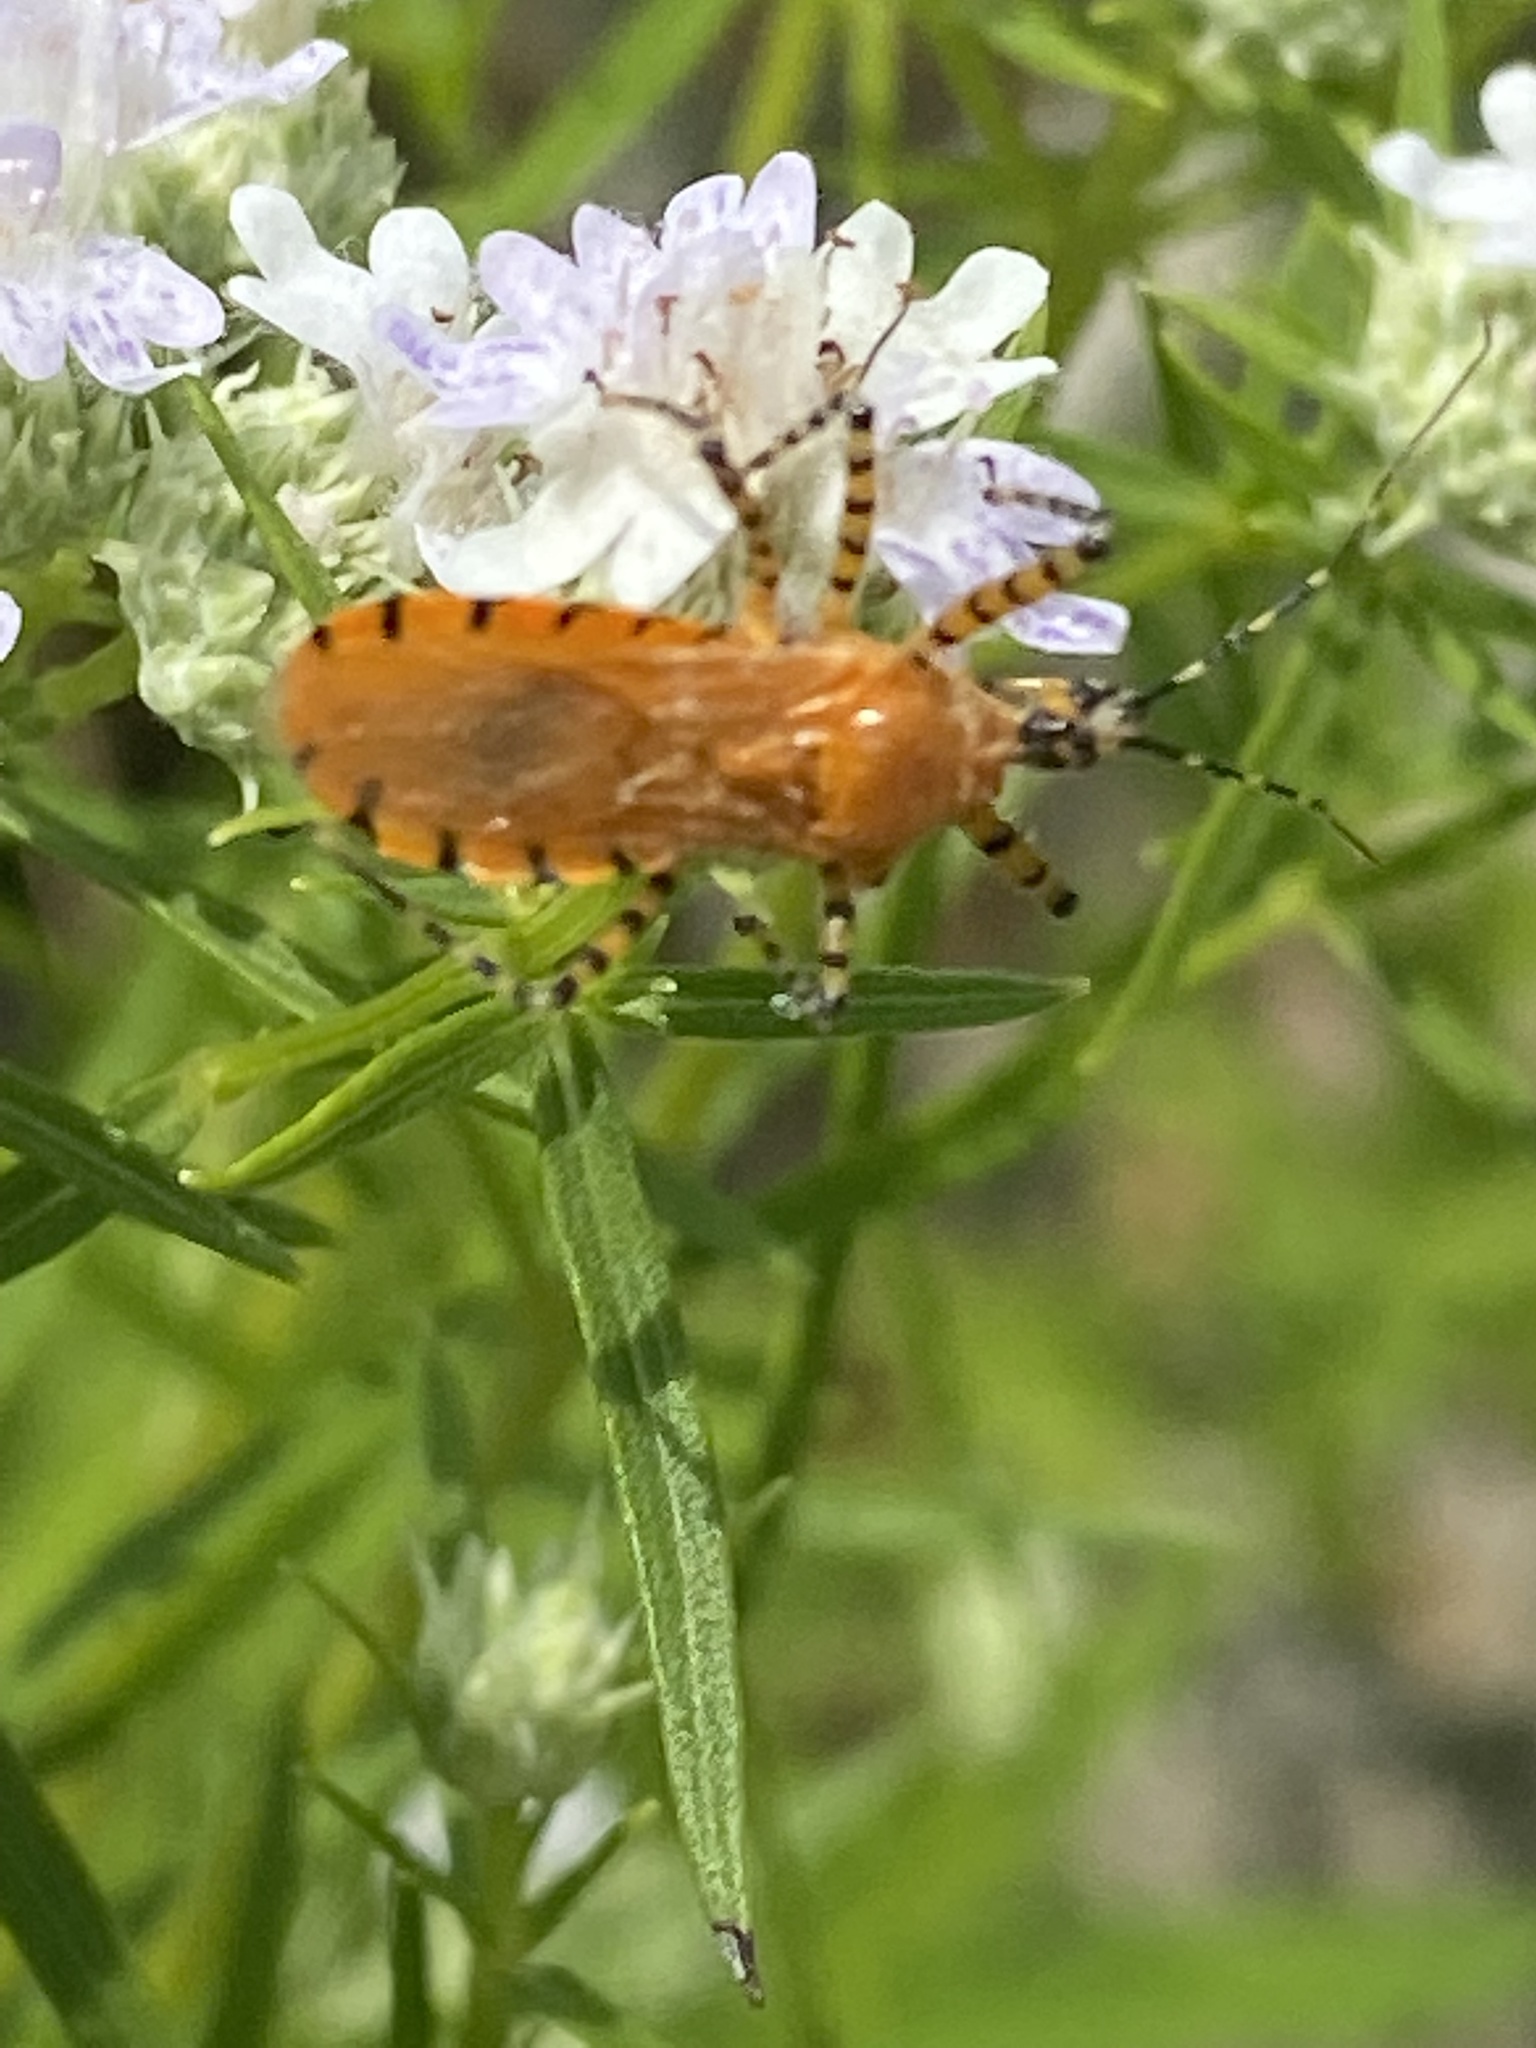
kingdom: Animalia
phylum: Arthropoda
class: Insecta
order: Hemiptera
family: Reduviidae
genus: Pselliopus
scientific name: Pselliopus barberi
